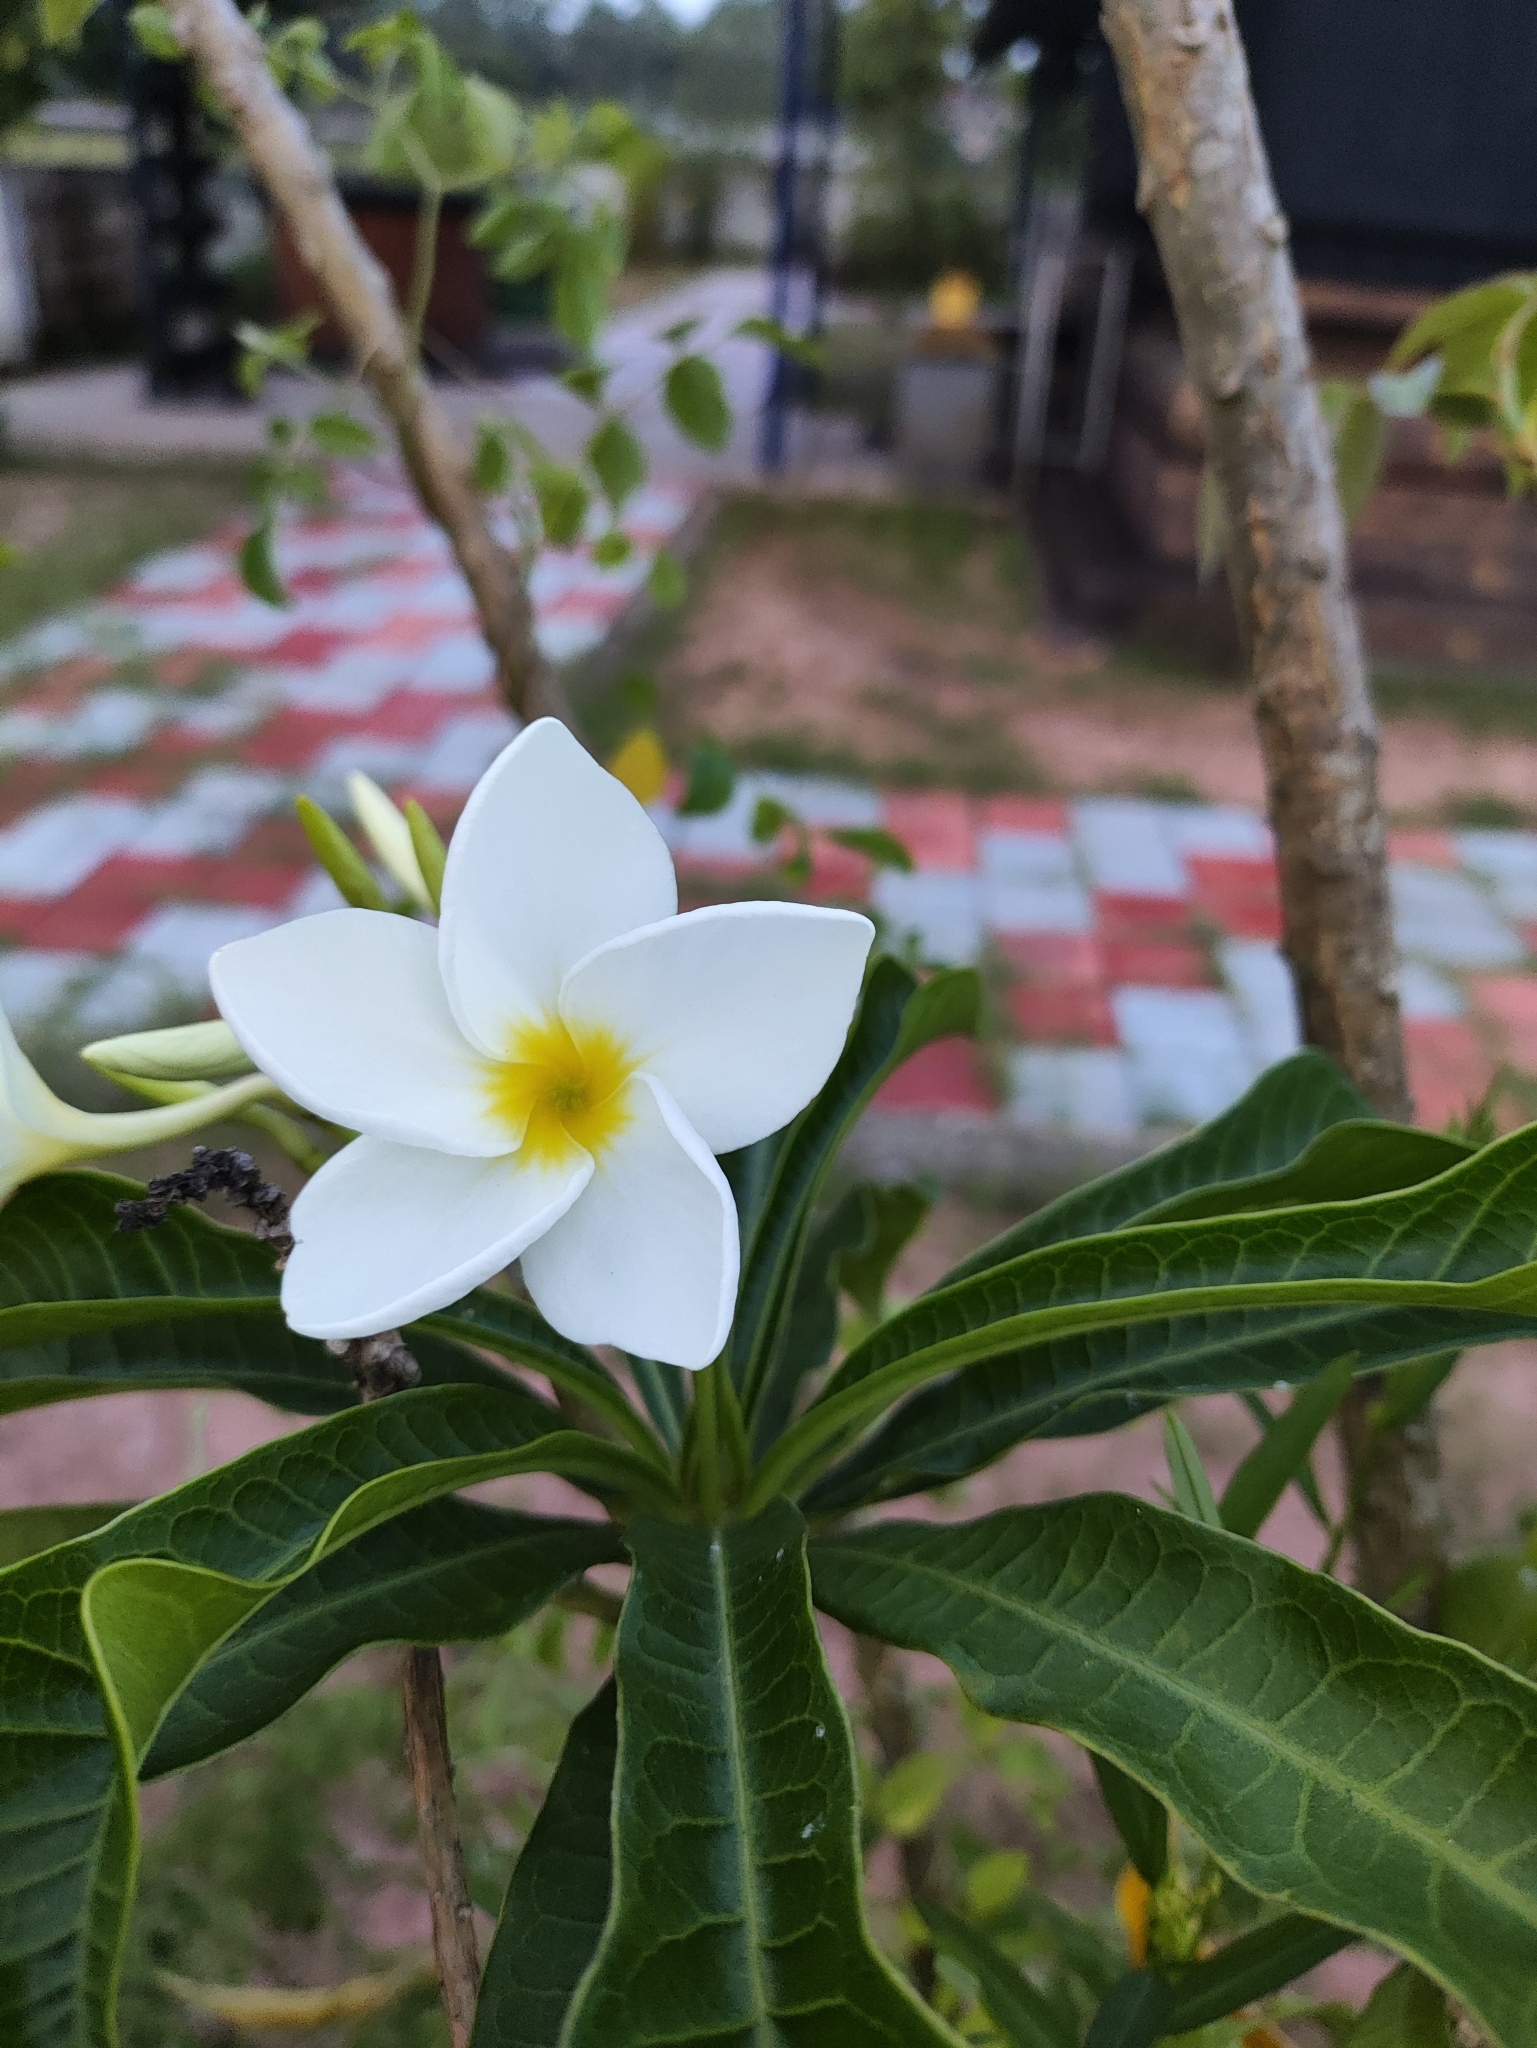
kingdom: Plantae
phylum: Tracheophyta
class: Magnoliopsida
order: Gentianales
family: Apocynaceae
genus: Plumeria
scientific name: Plumeria pudica
